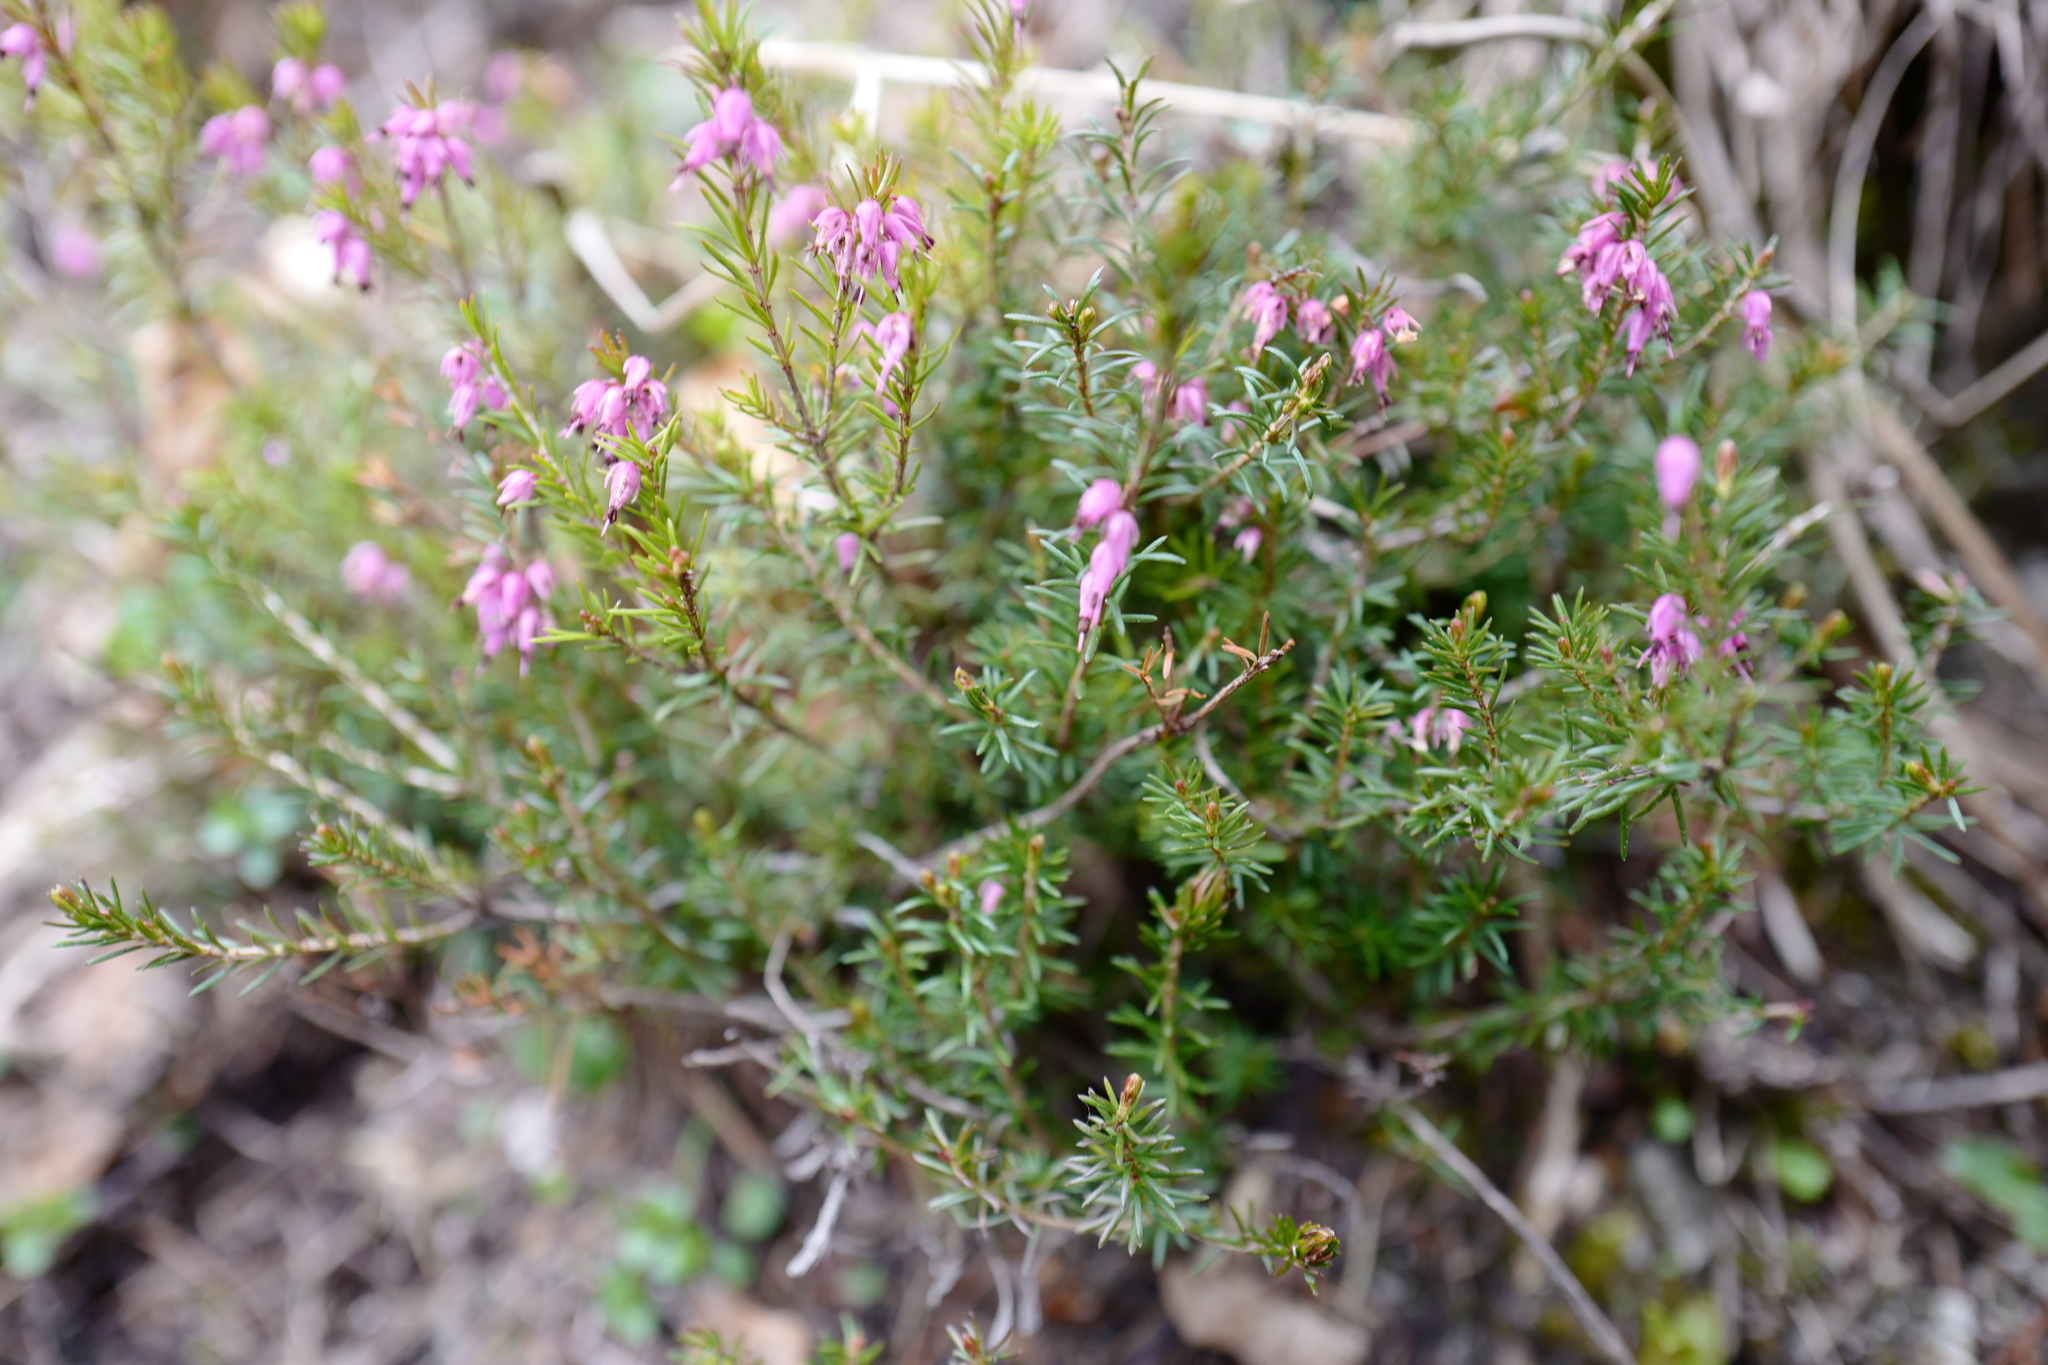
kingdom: Plantae
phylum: Tracheophyta
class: Magnoliopsida
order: Ericales
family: Ericaceae
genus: Erica
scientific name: Erica carnea
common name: Winter heath
